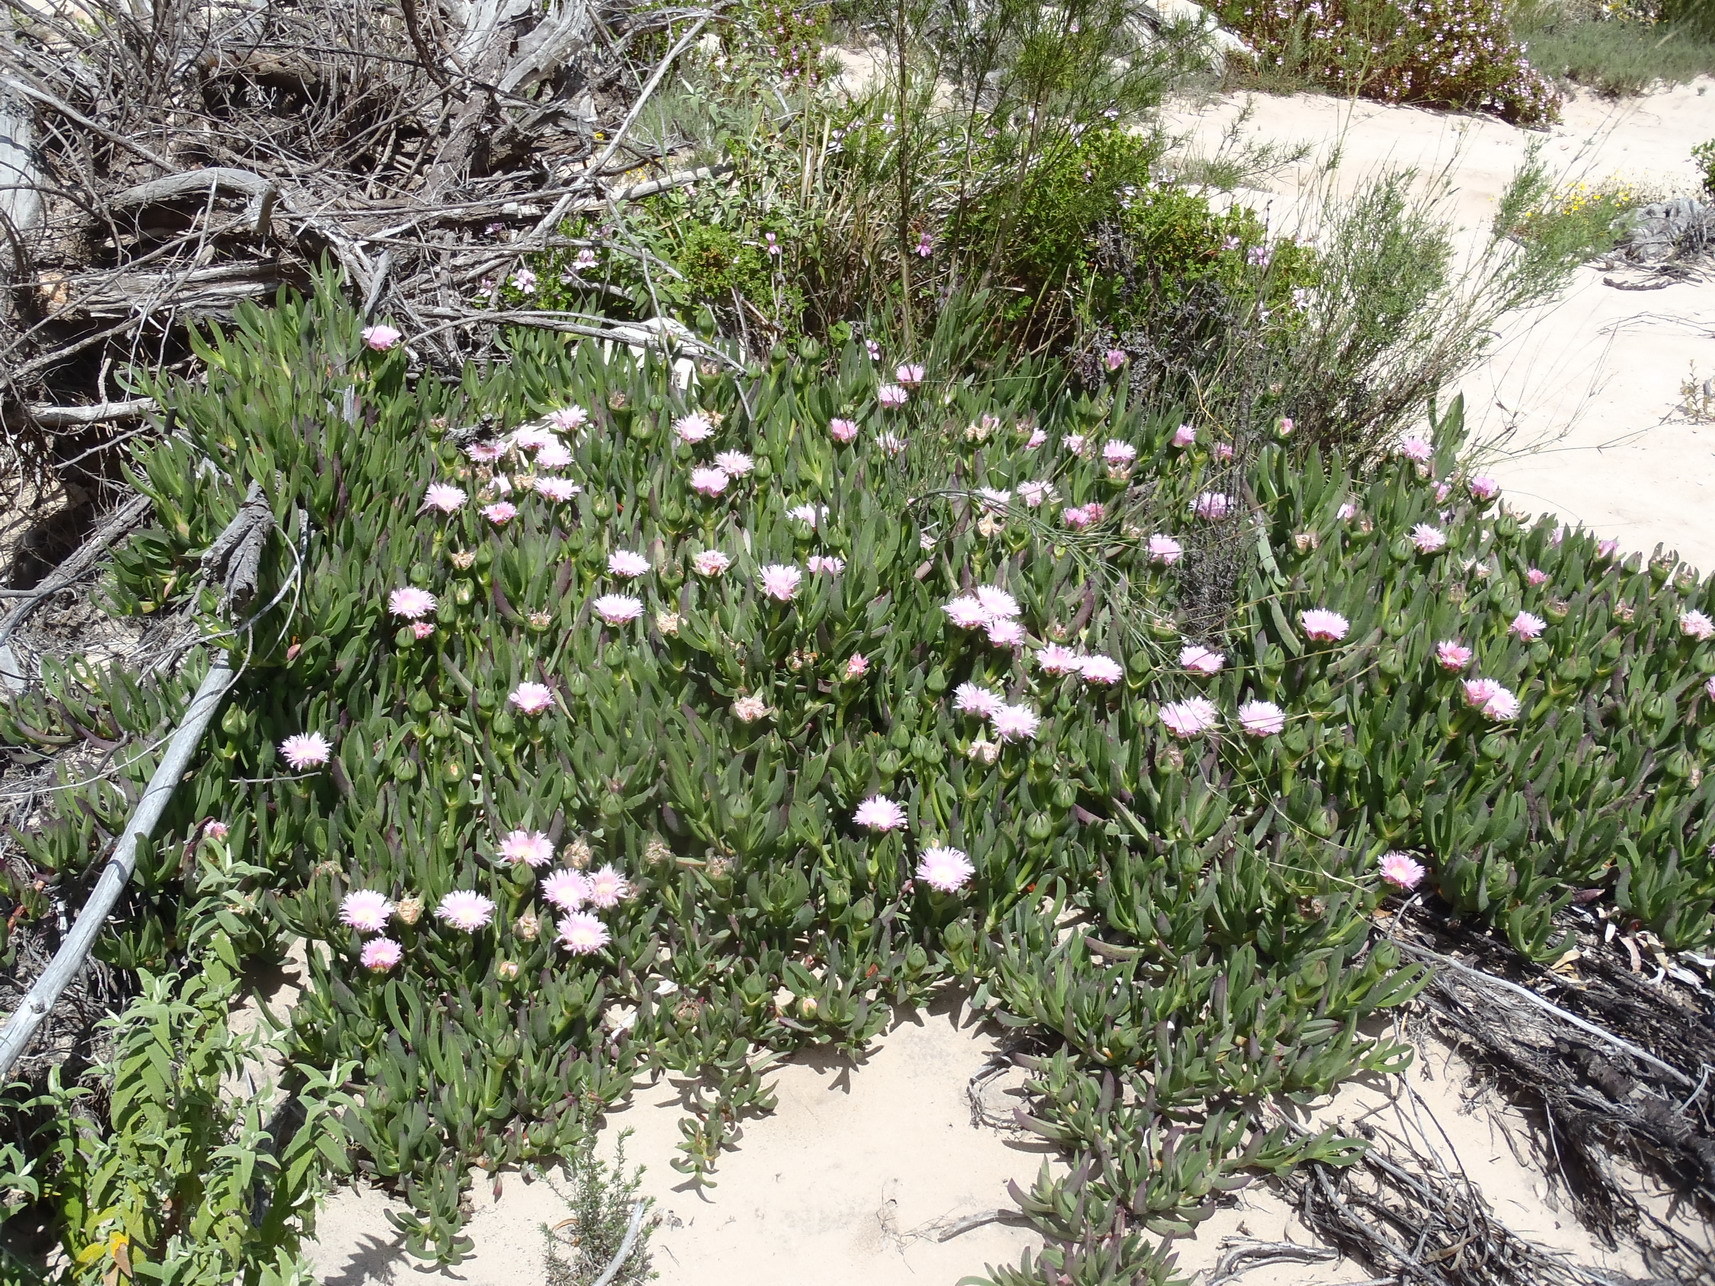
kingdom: Plantae
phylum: Tracheophyta
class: Magnoliopsida
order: Caryophyllales
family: Aizoaceae
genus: Carpobrotus
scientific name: Carpobrotus mellei
